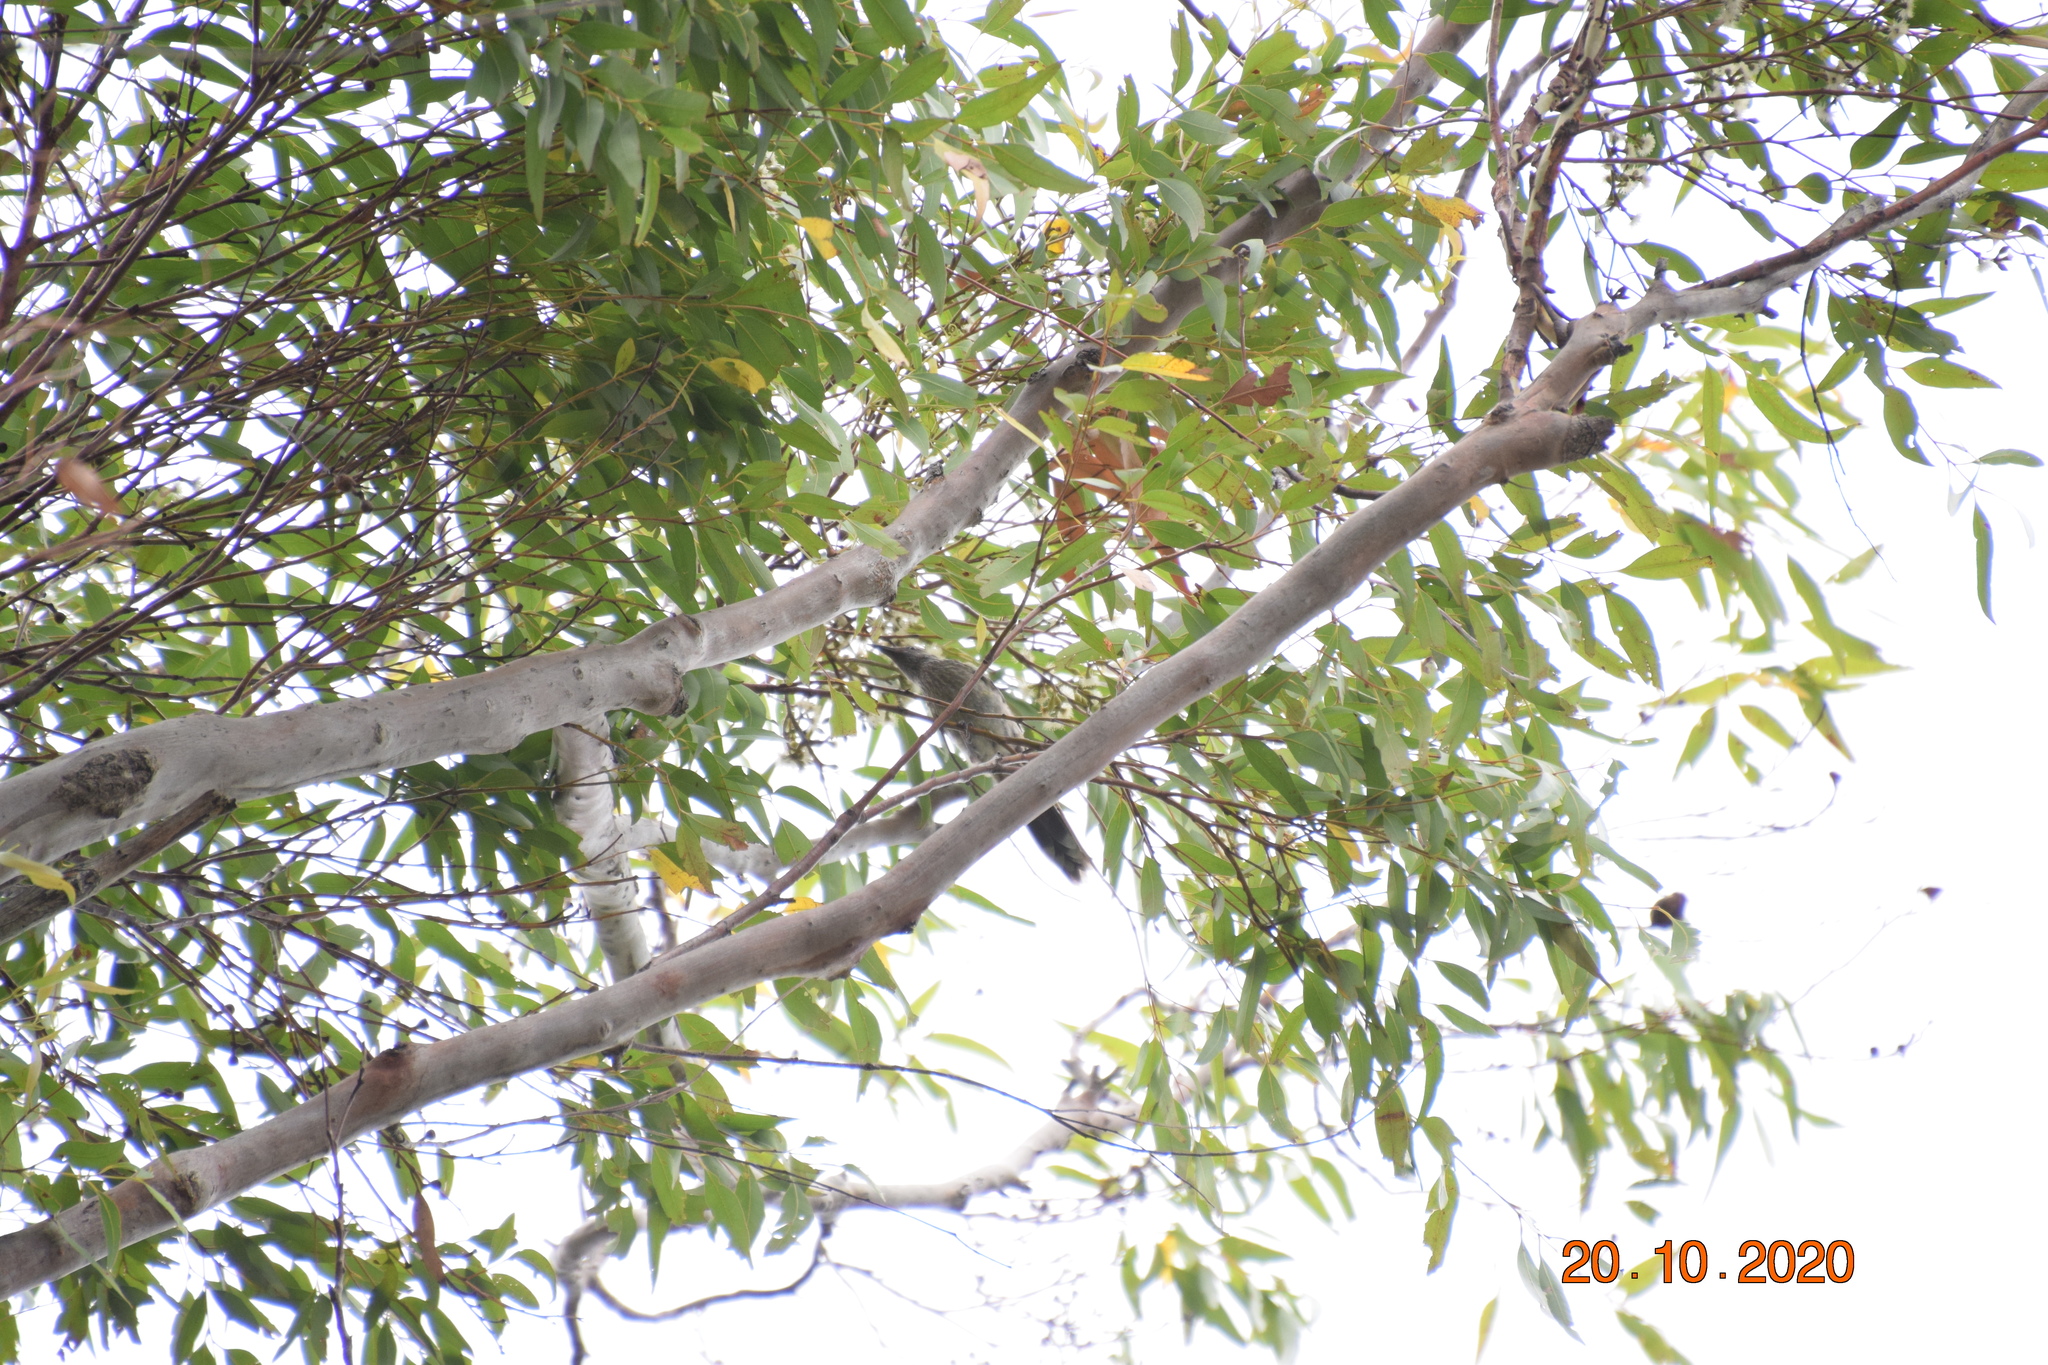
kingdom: Animalia
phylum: Chordata
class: Aves
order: Passeriformes
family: Meliphagidae
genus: Anthochaera
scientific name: Anthochaera chrysoptera
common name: Little wattlebird
